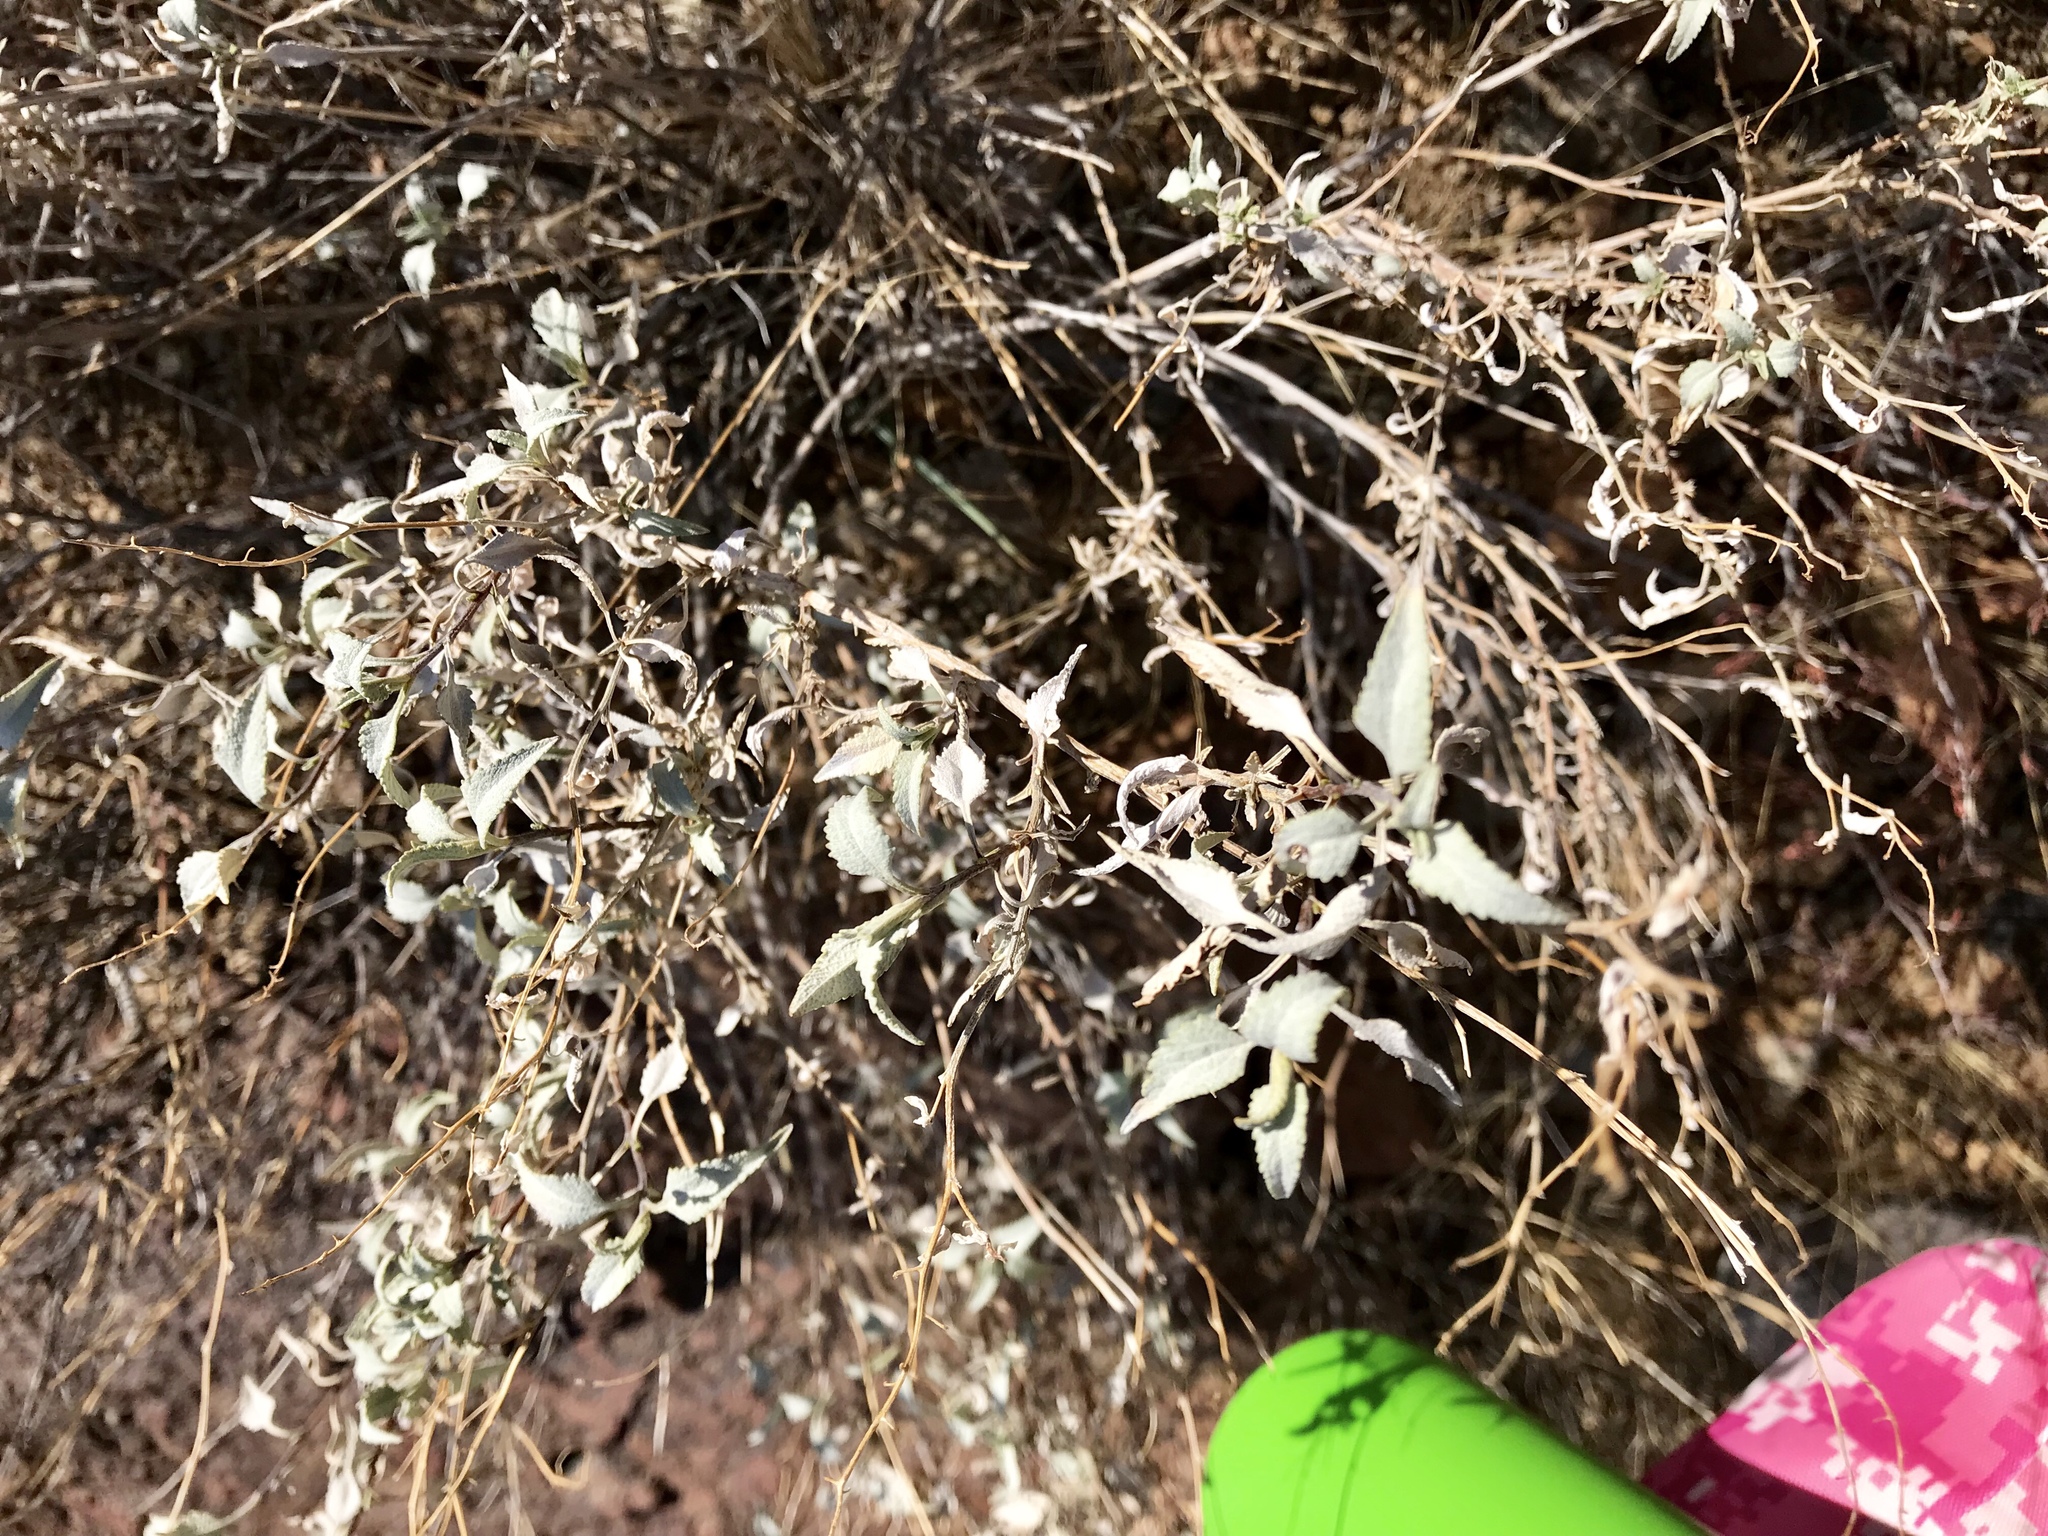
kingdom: Plantae
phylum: Tracheophyta
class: Magnoliopsida
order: Asterales
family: Asteraceae
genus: Ambrosia
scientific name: Ambrosia deltoidea
